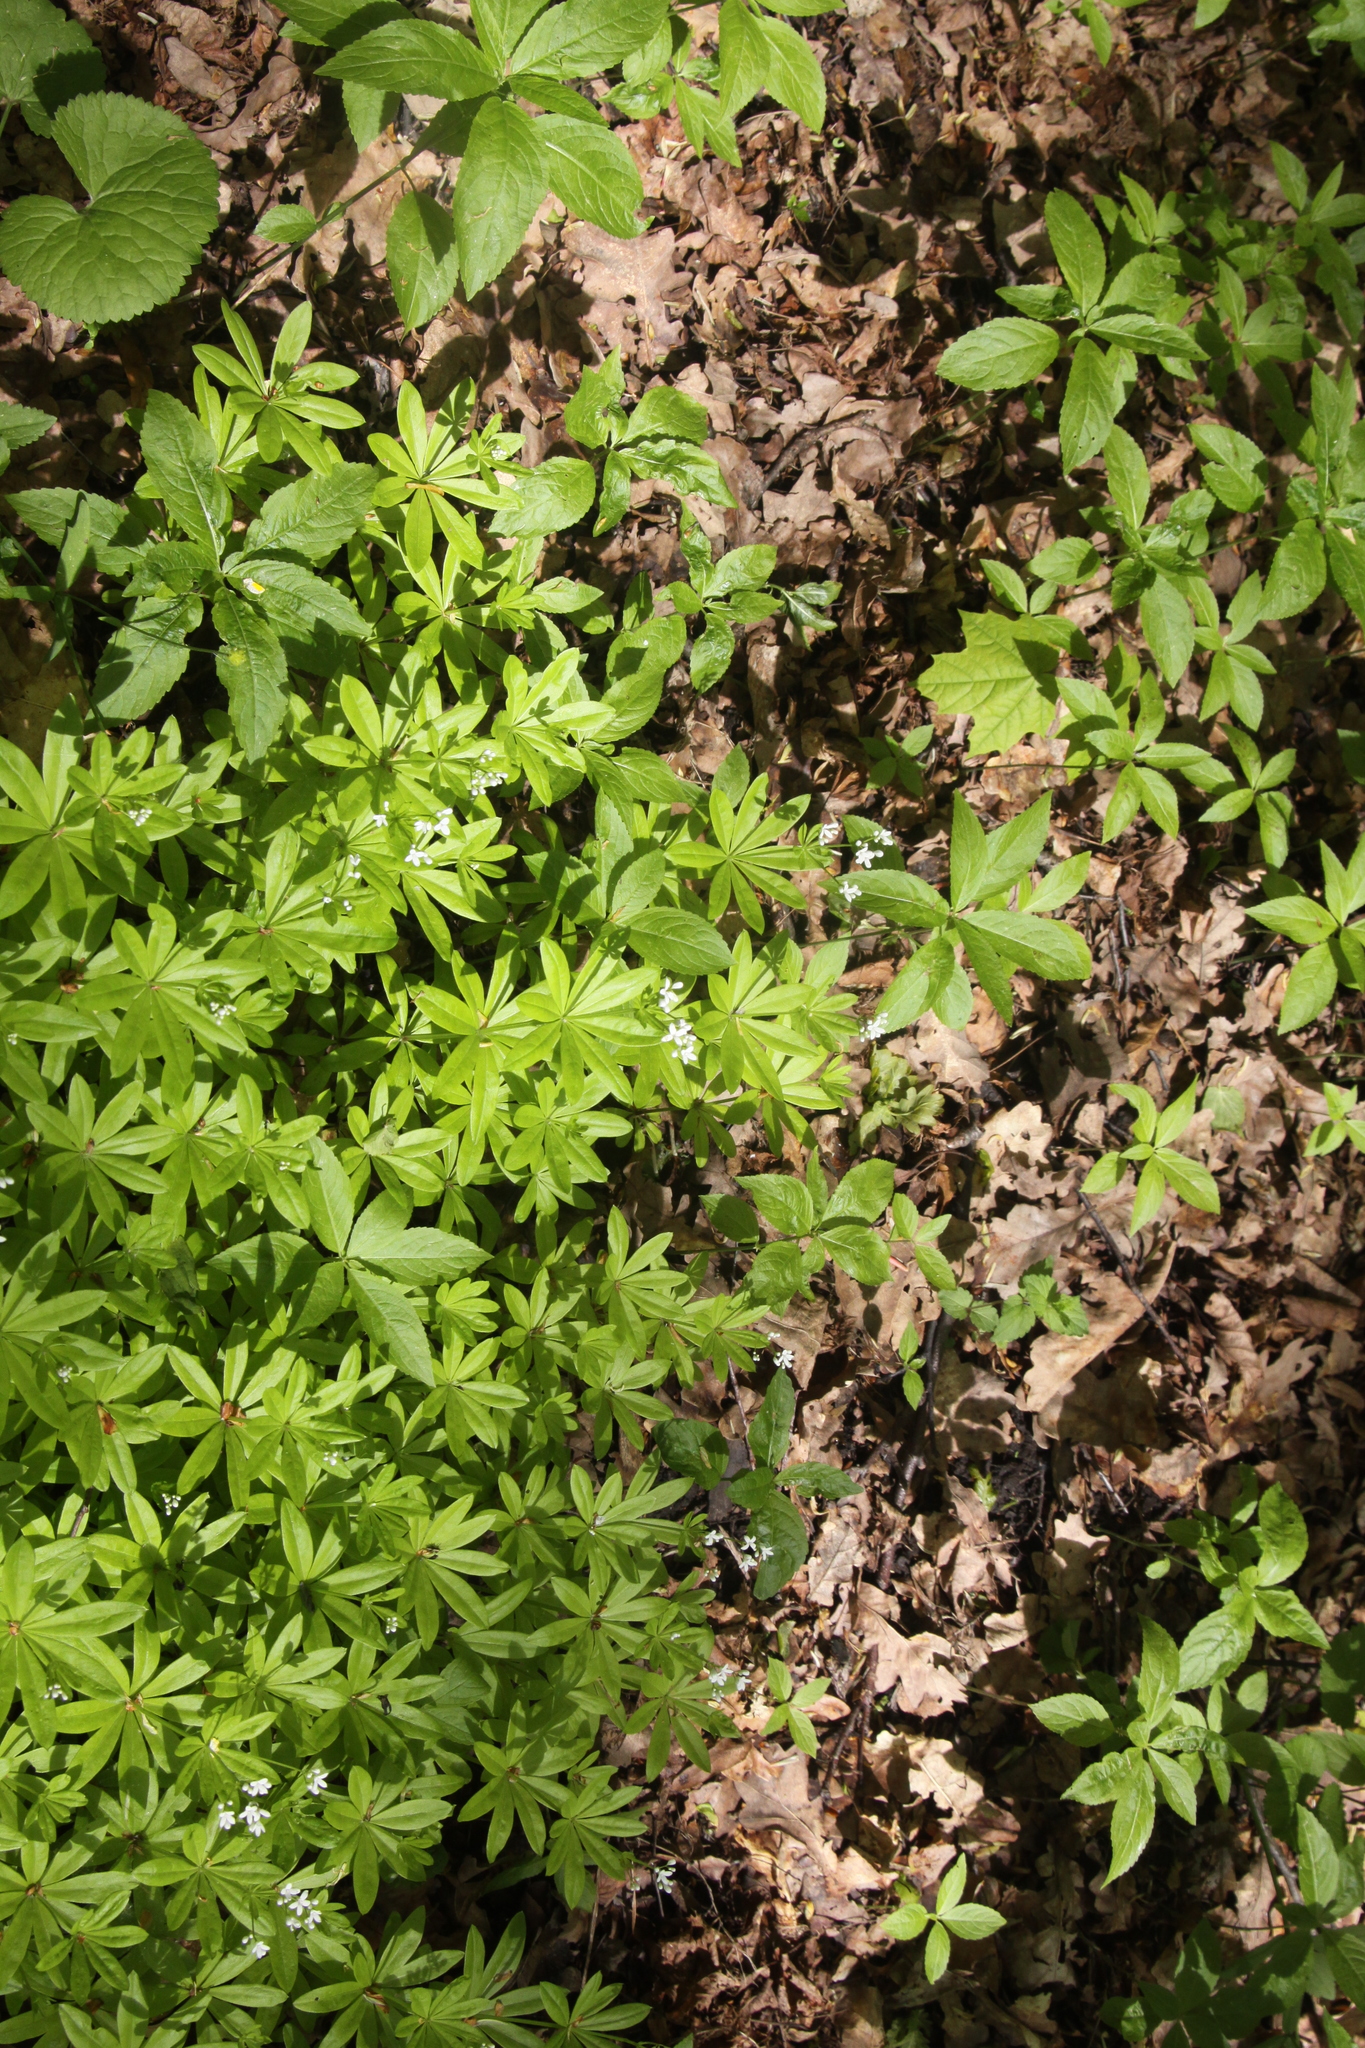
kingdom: Plantae
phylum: Tracheophyta
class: Magnoliopsida
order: Gentianales
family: Rubiaceae
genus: Galium
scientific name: Galium odoratum
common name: Sweet woodruff
